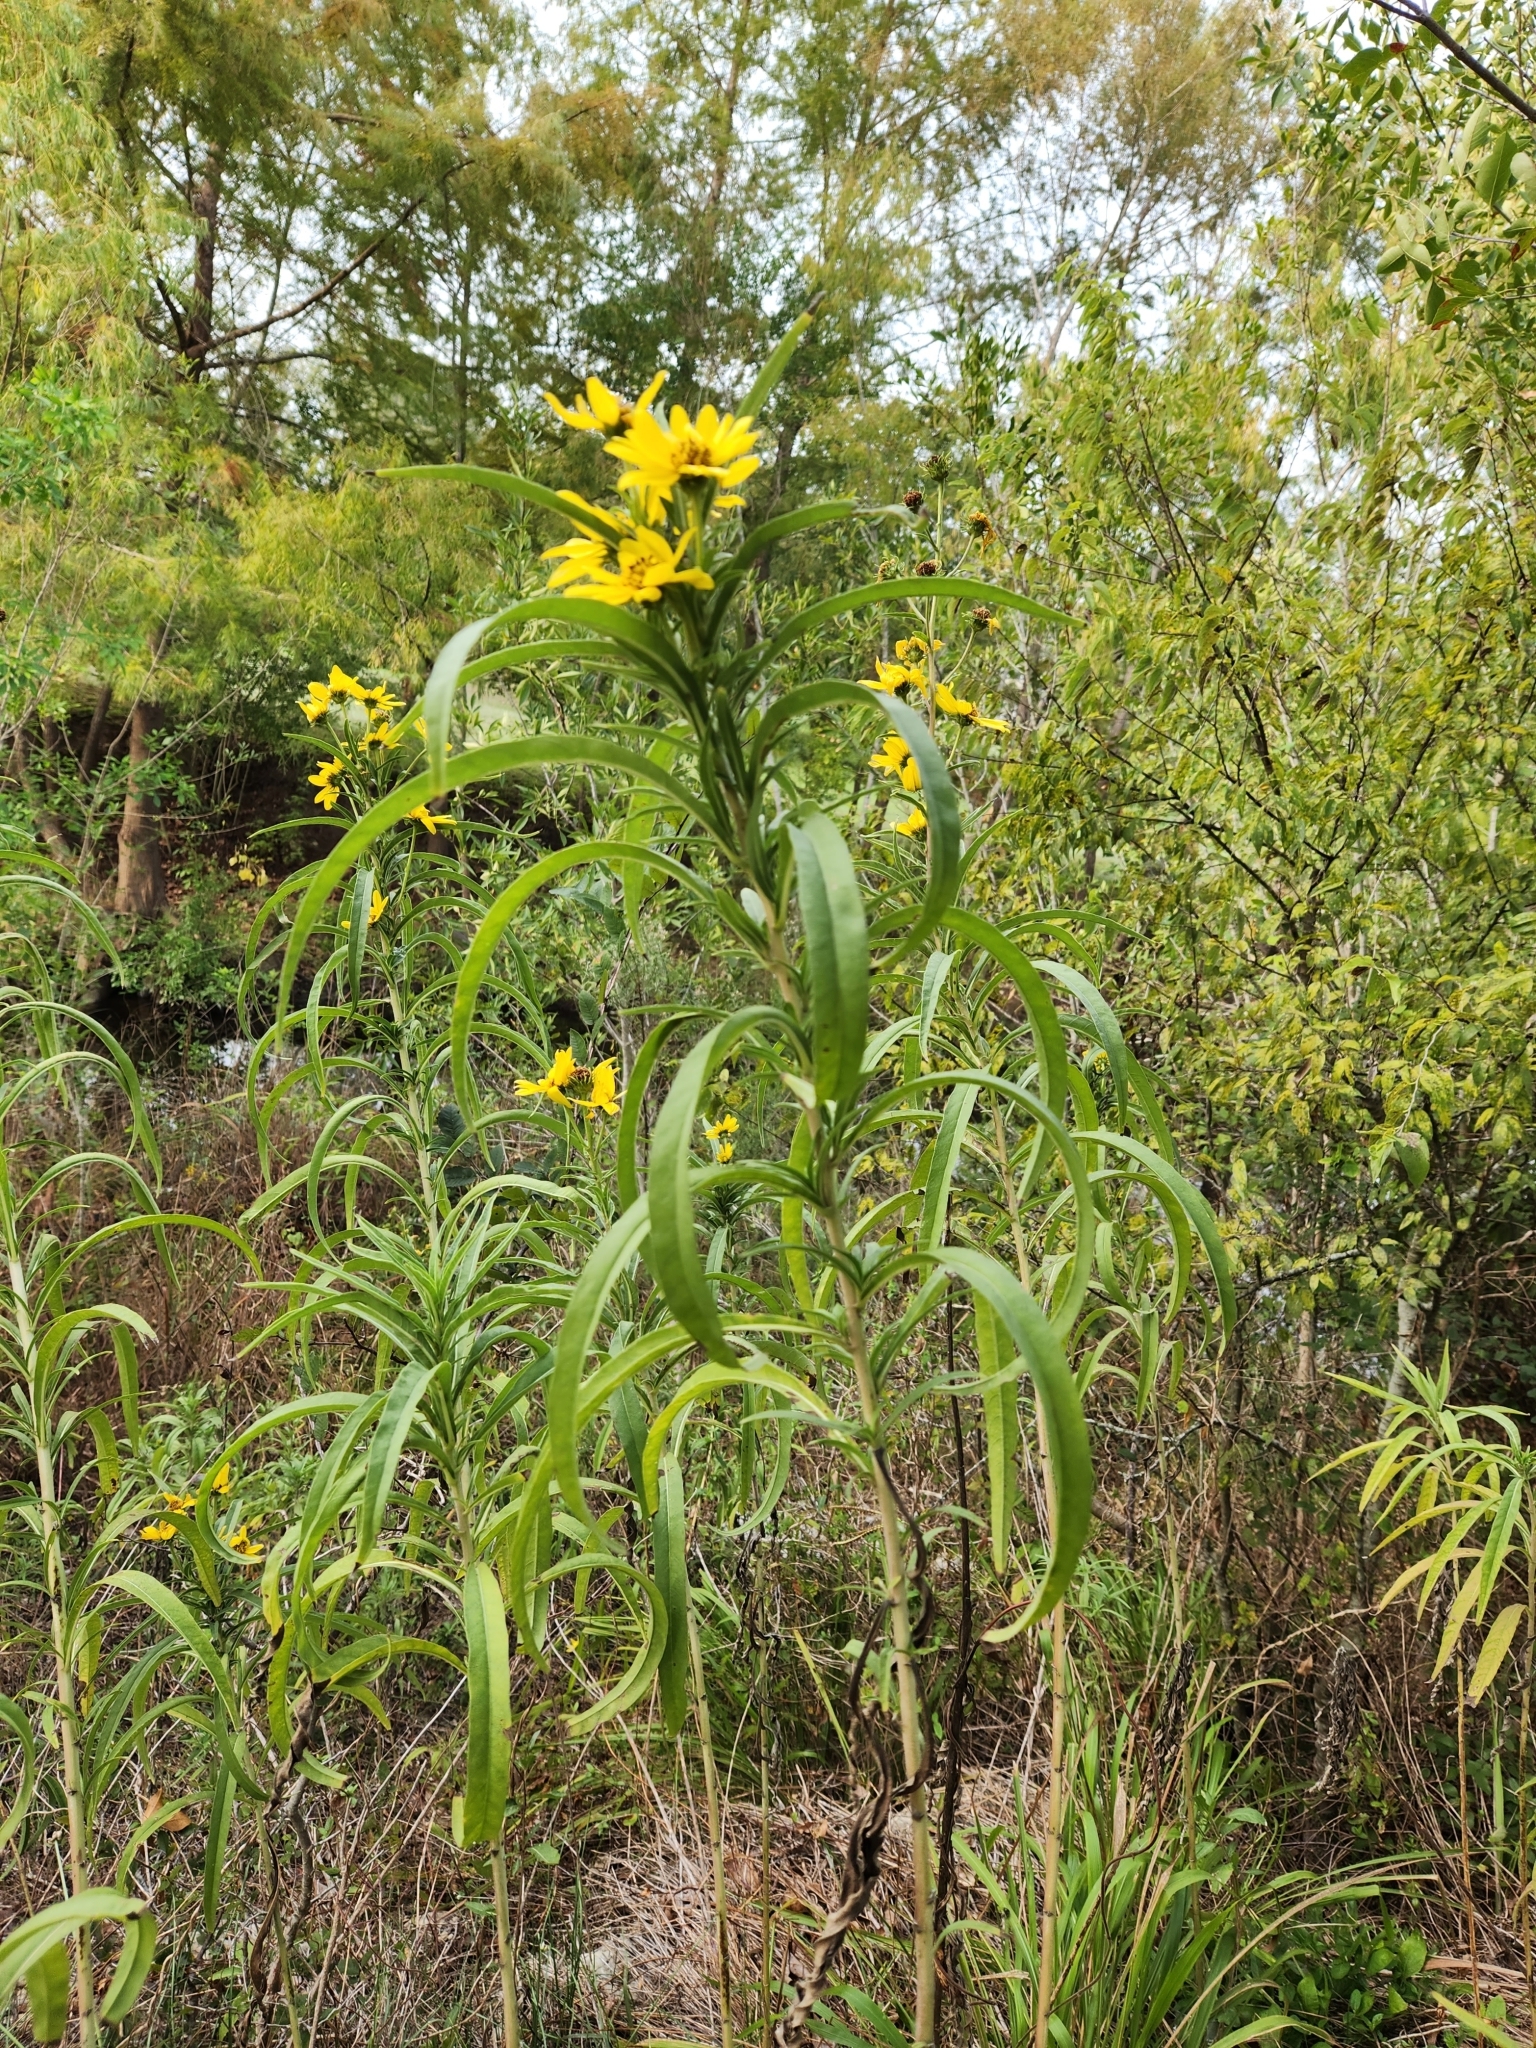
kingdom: Plantae
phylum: Tracheophyta
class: Magnoliopsida
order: Asterales
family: Asteraceae
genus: Helianthus
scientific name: Helianthus maximiliani
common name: Maximilian's sunflower
